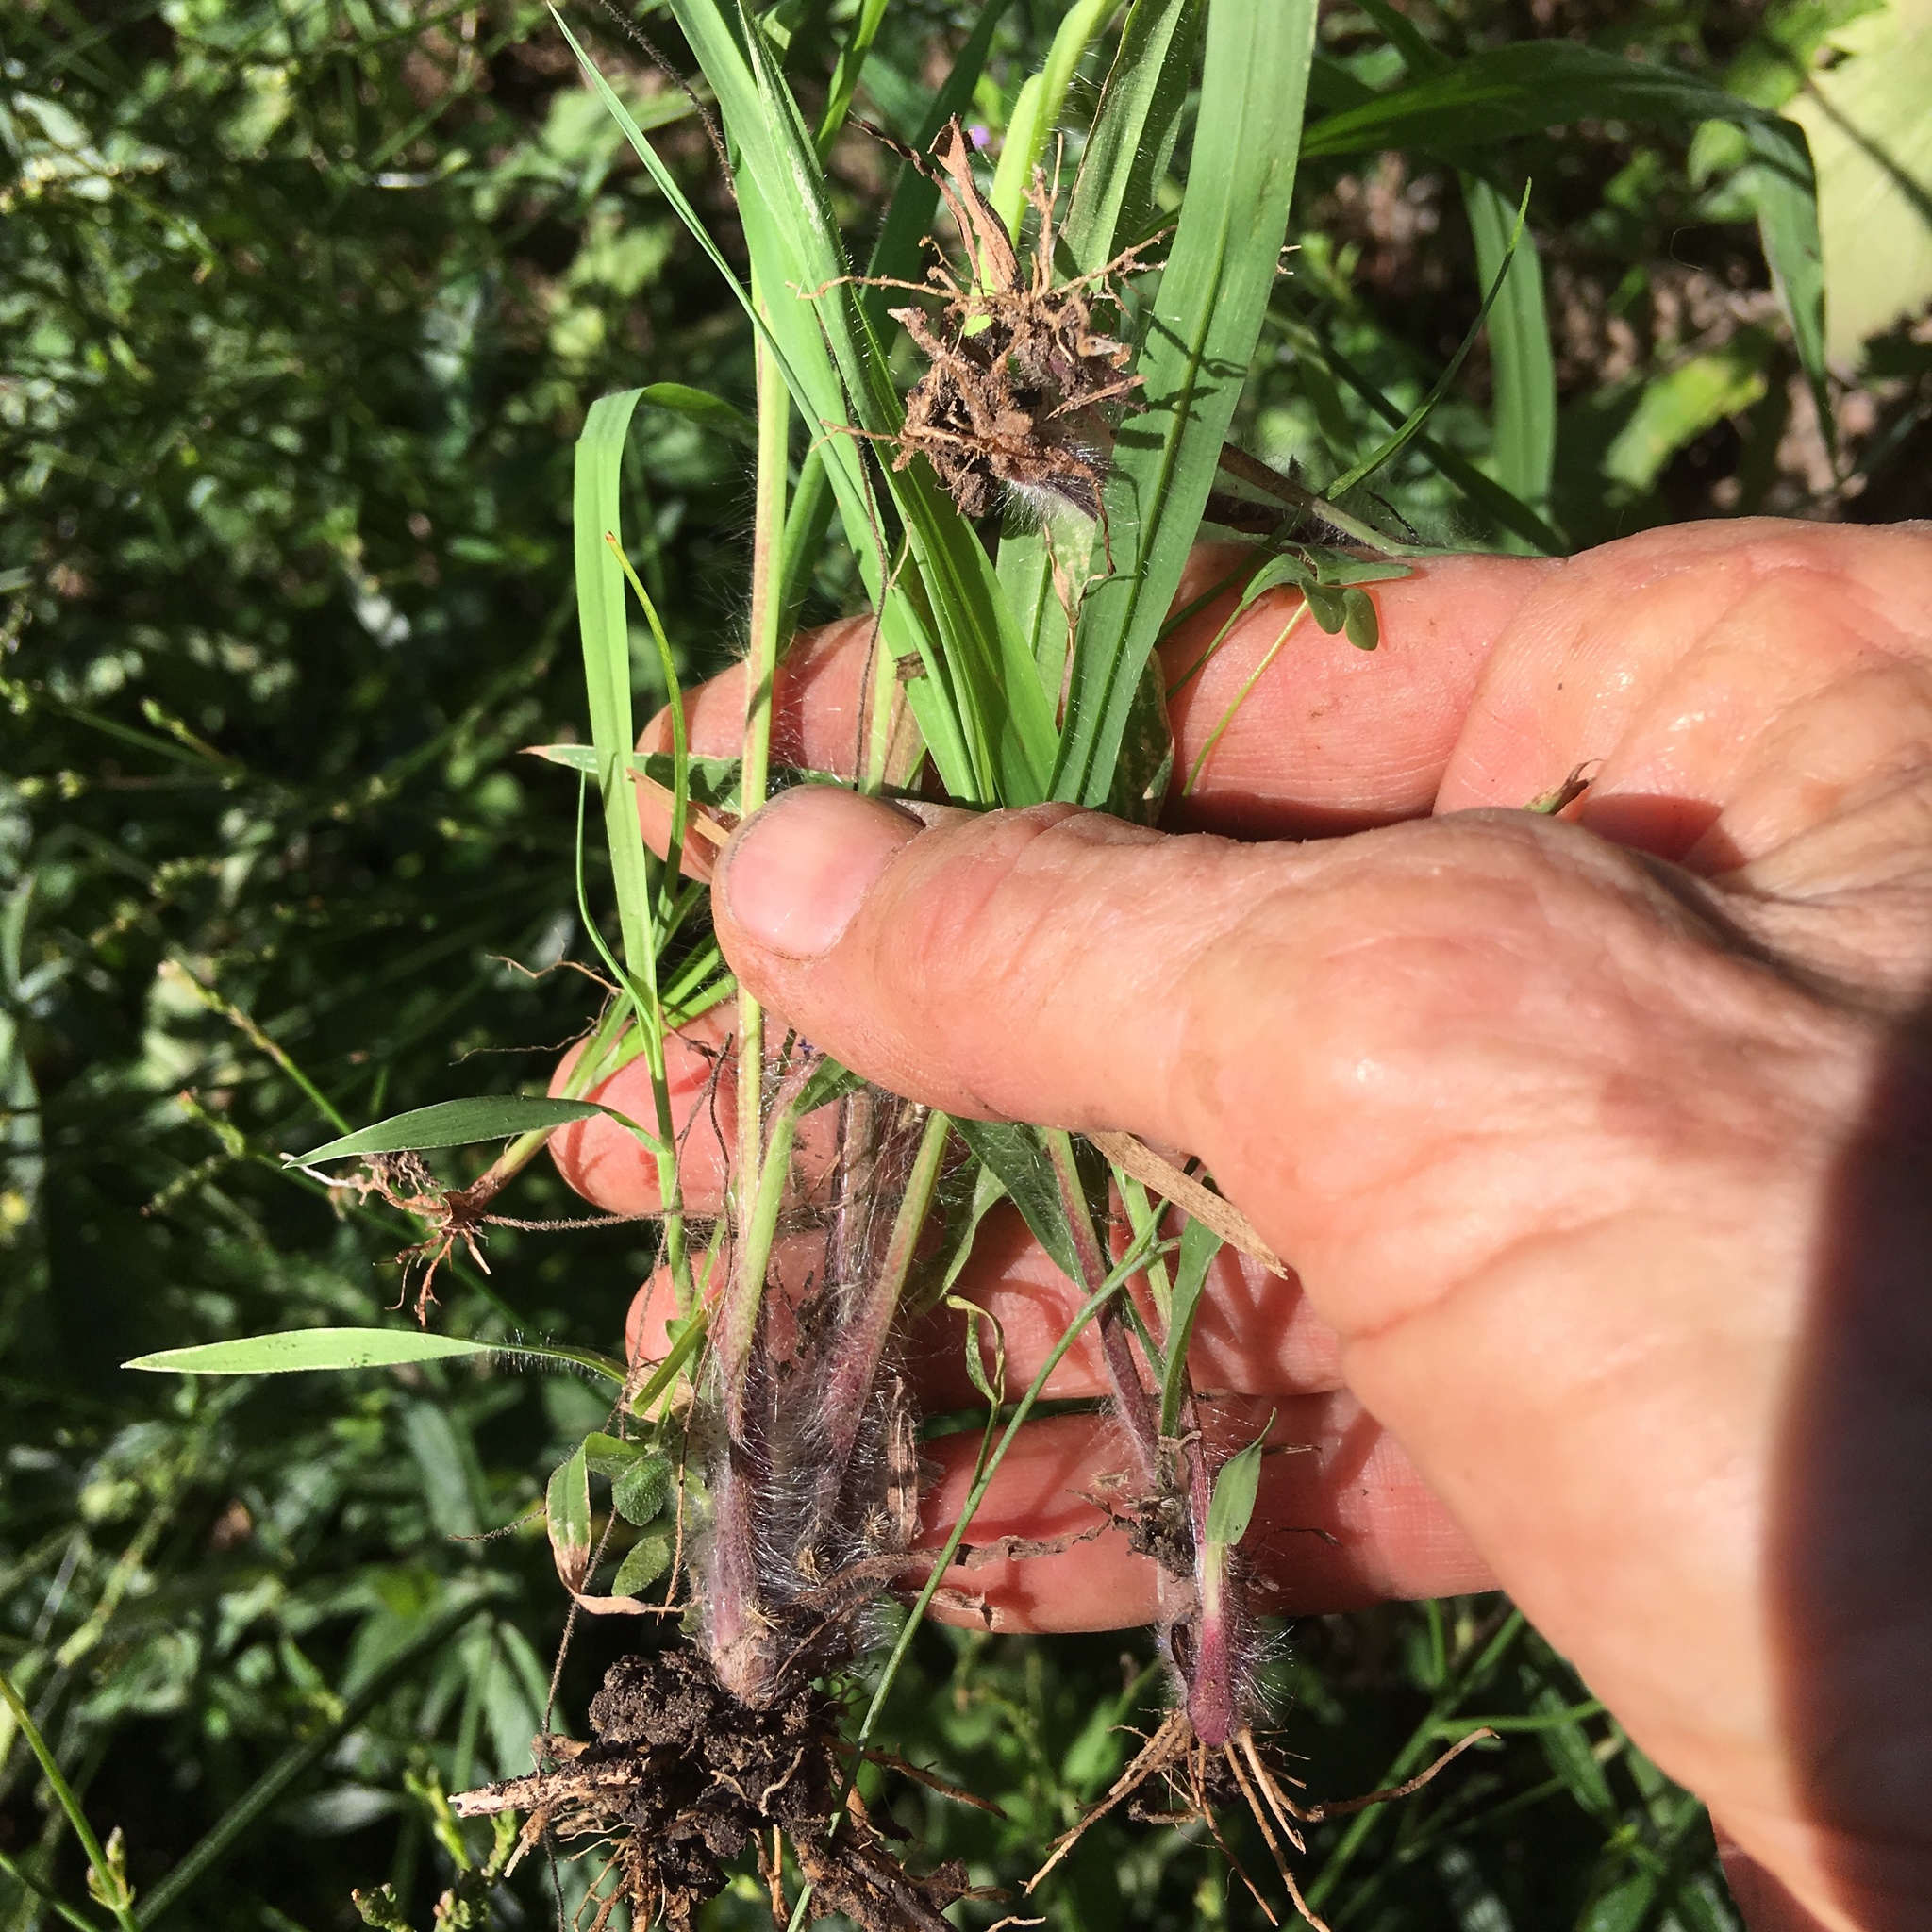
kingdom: Plantae
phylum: Tracheophyta
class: Liliopsida
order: Poales
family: Poaceae
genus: Paspalum
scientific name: Paspalum dilatatum
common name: Dallisgrass
